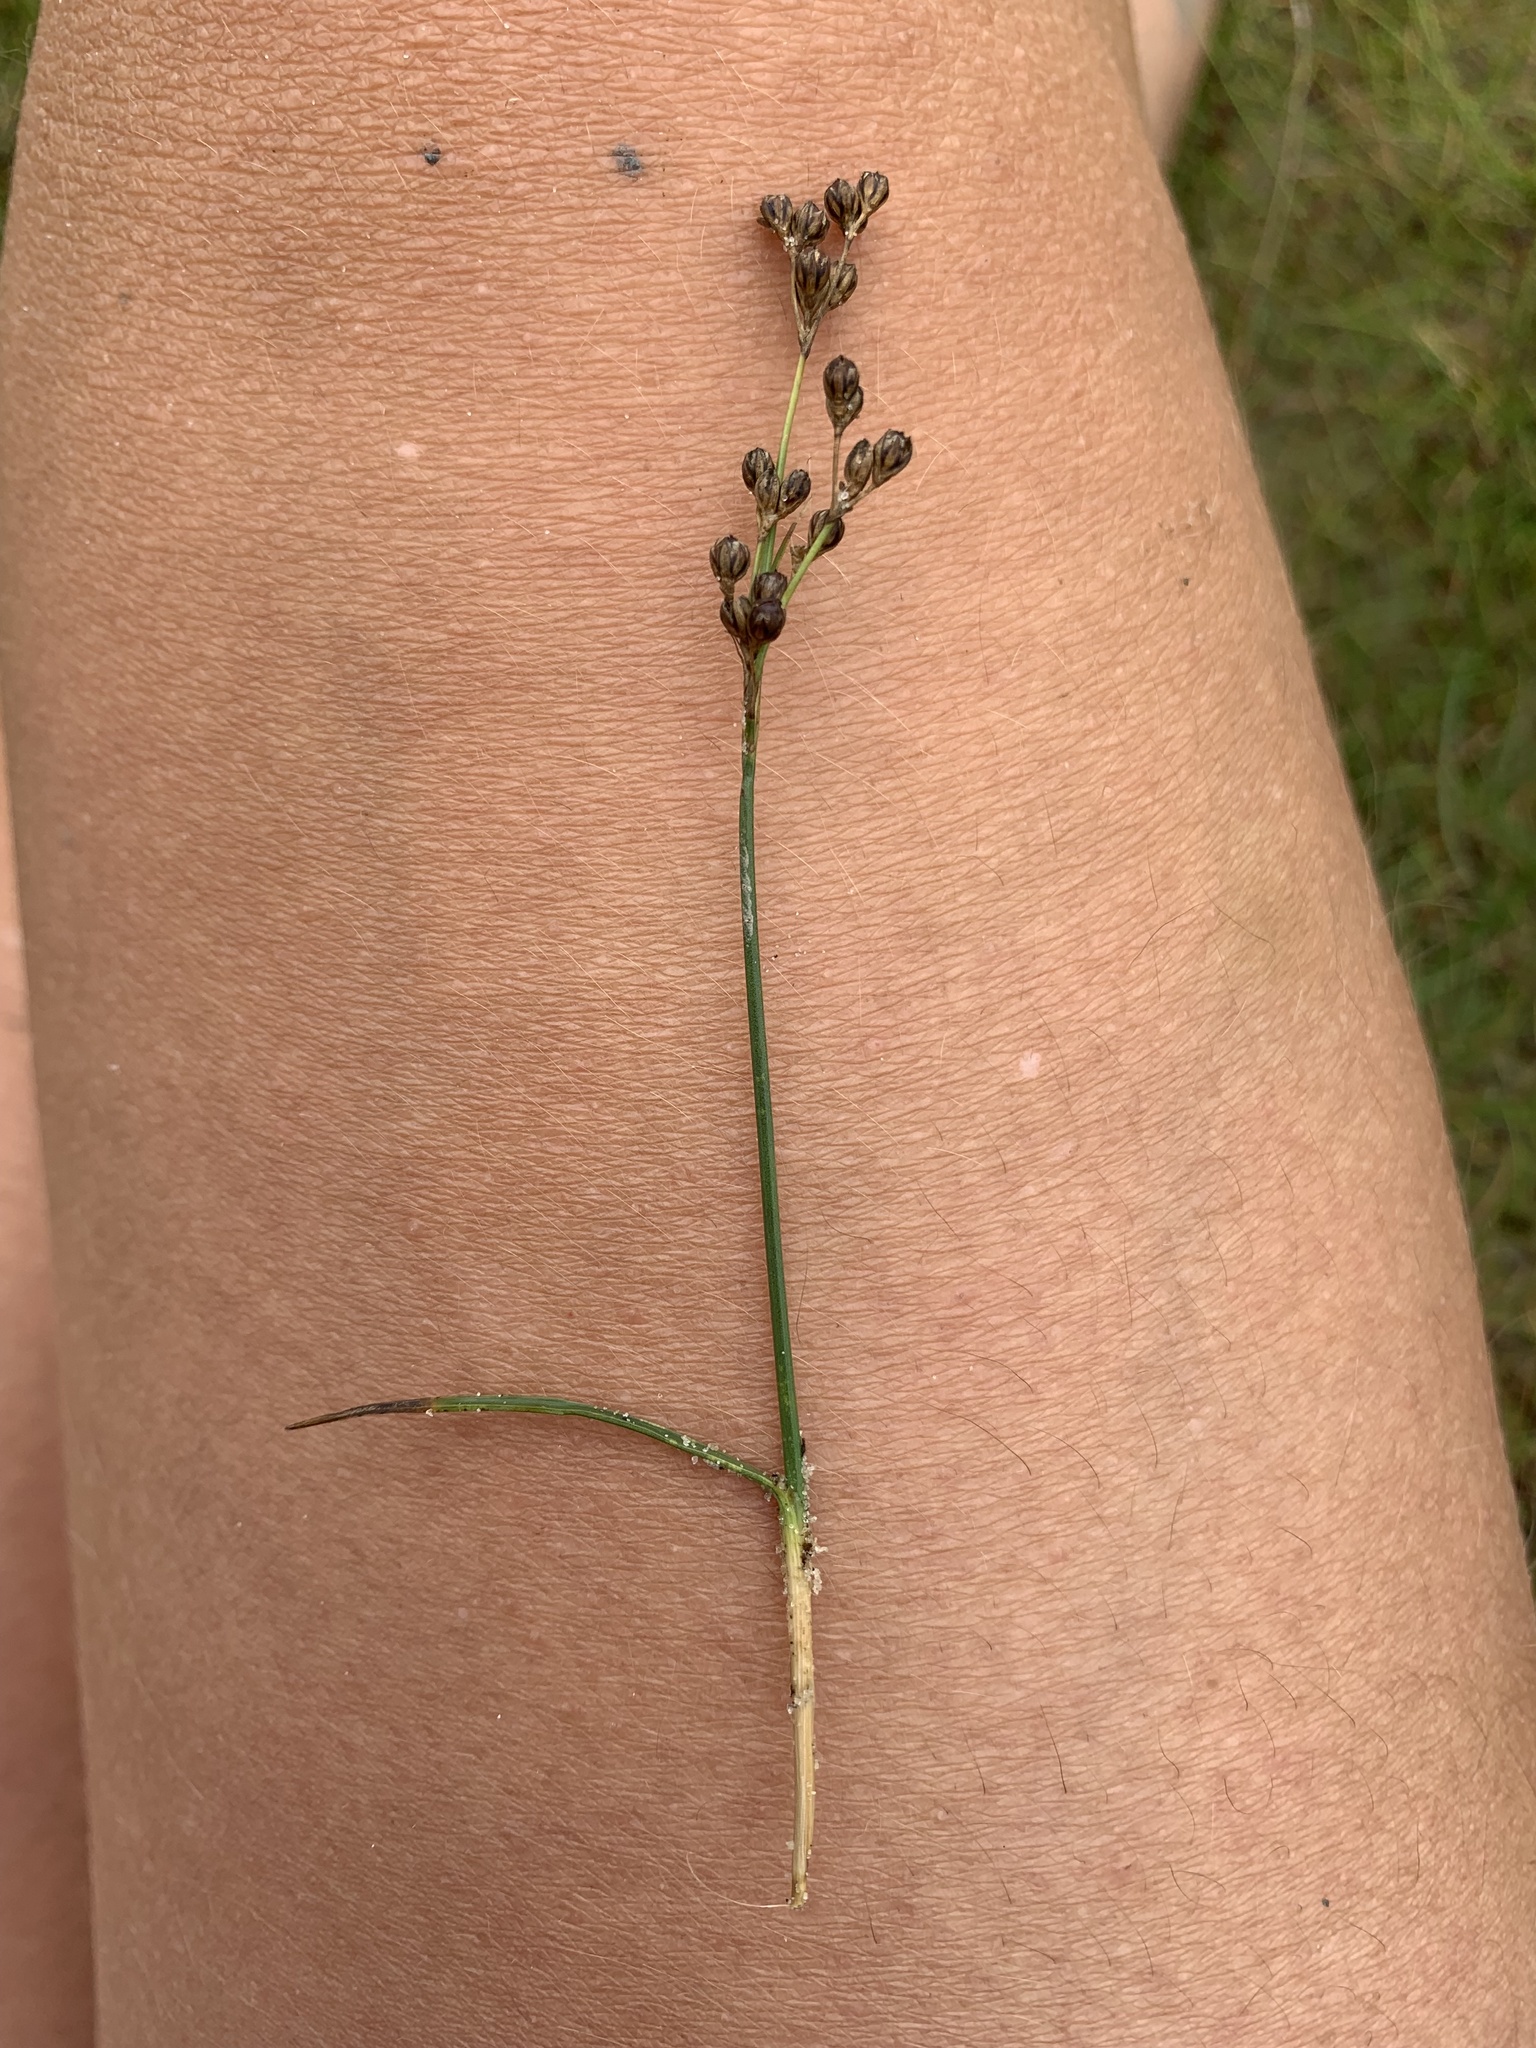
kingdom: Plantae
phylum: Tracheophyta
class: Liliopsida
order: Poales
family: Juncaceae
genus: Juncus
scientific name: Juncus gerardi
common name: Saltmarsh rush
